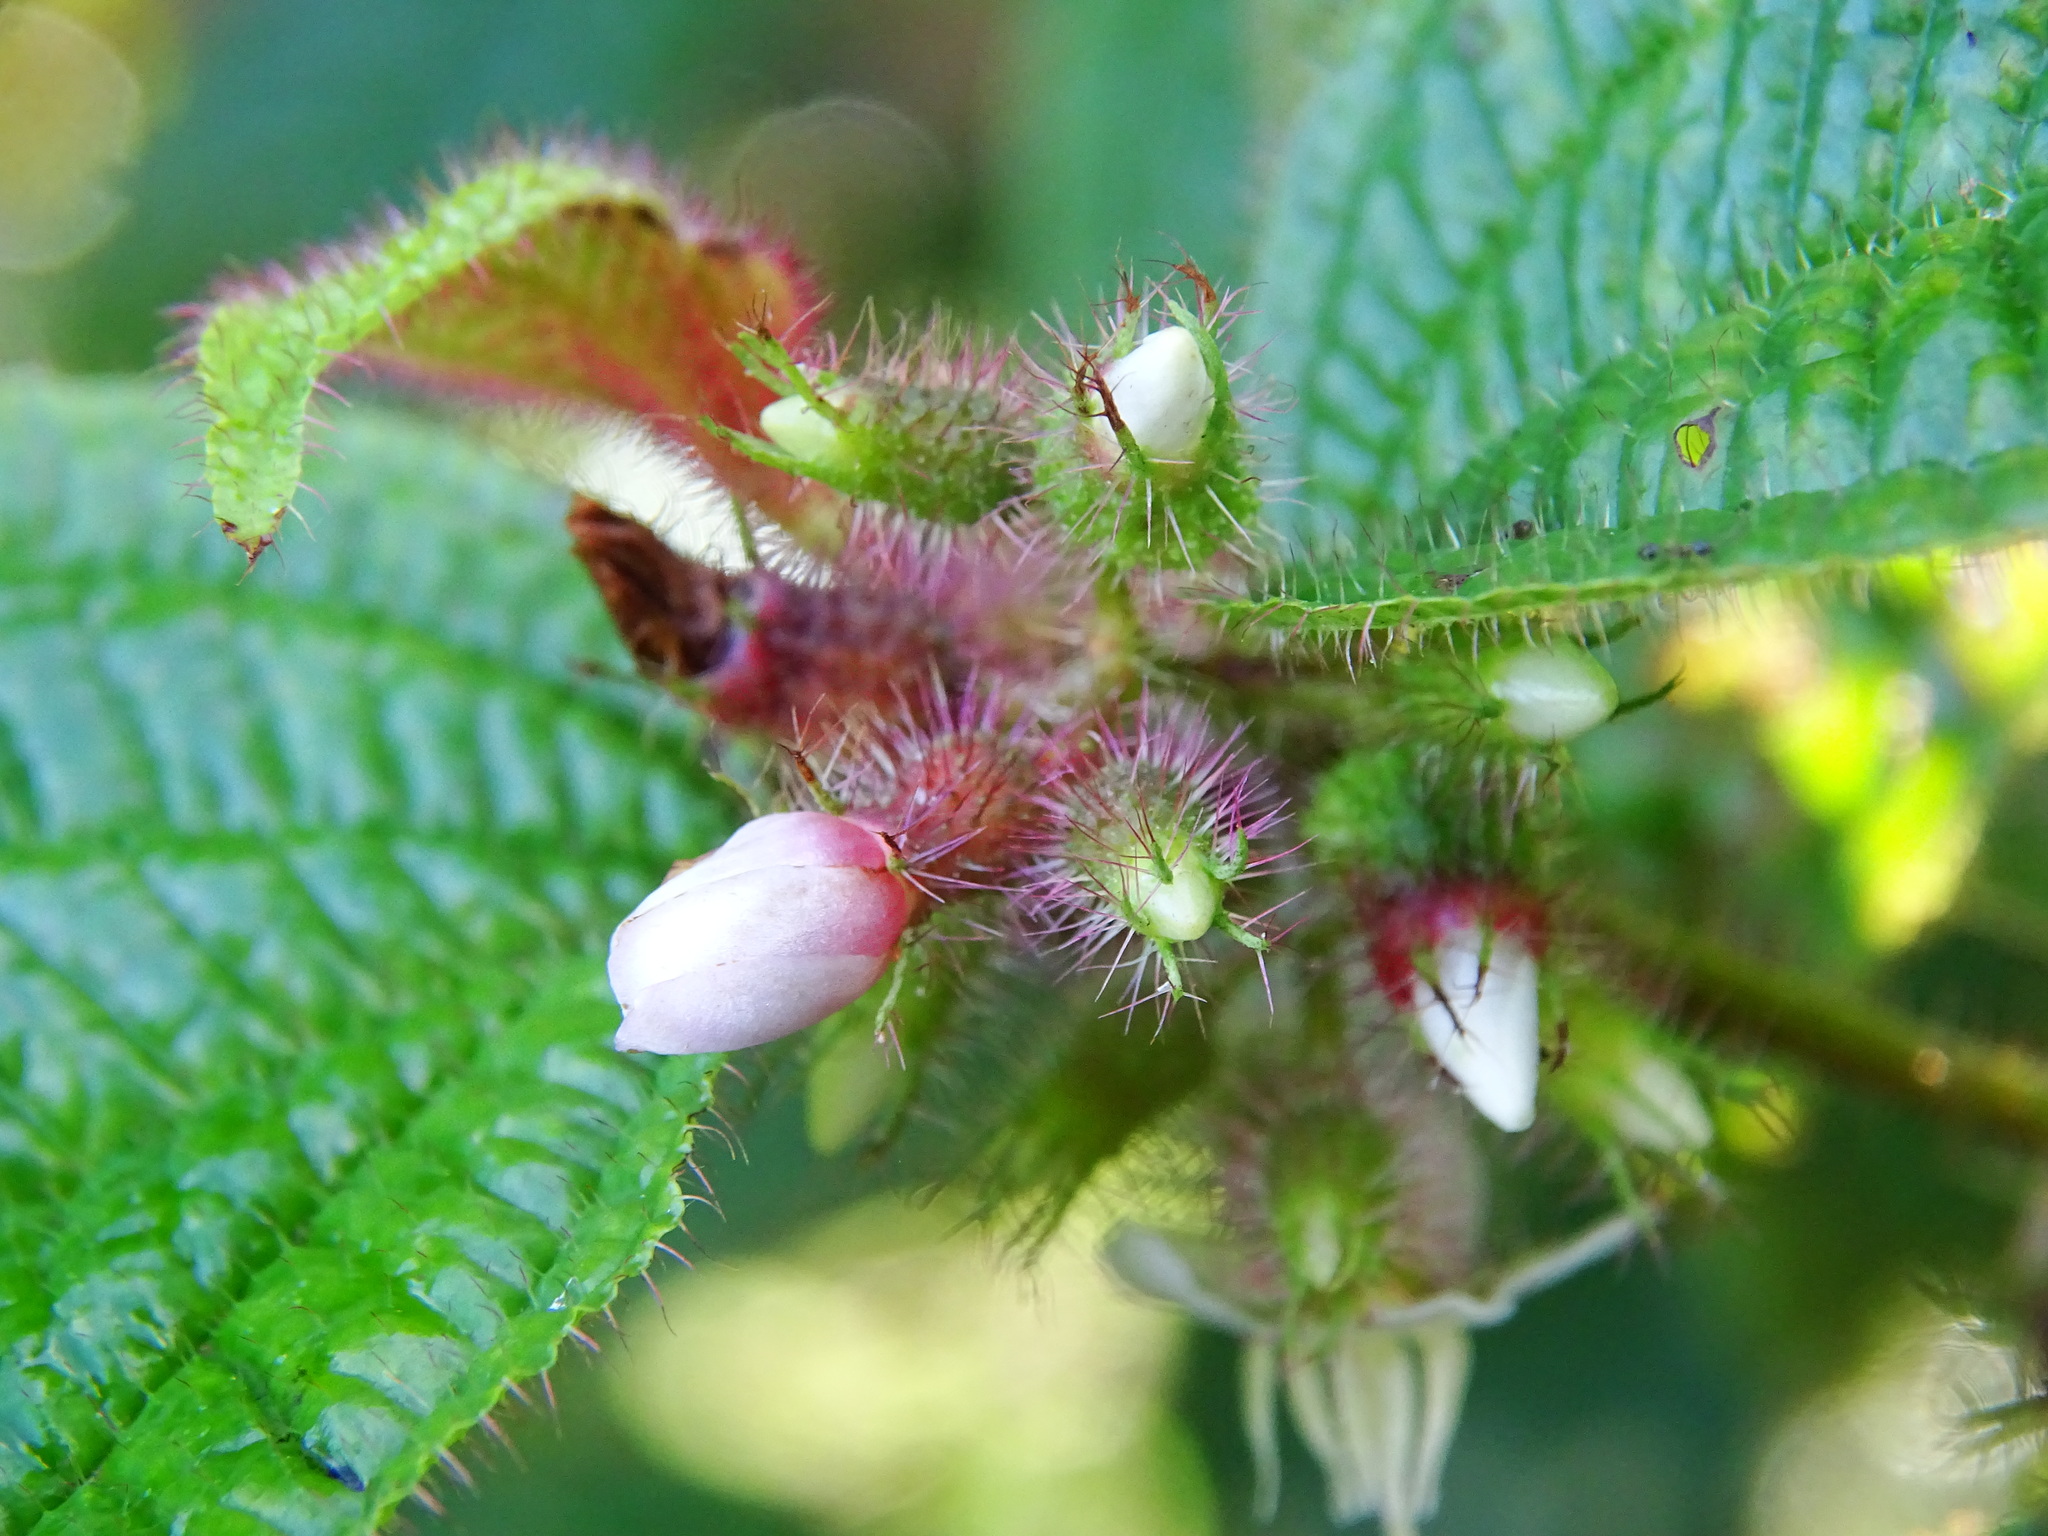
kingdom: Plantae
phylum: Tracheophyta
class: Magnoliopsida
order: Myrtales
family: Melastomataceae
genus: Miconia
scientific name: Miconia crenata
